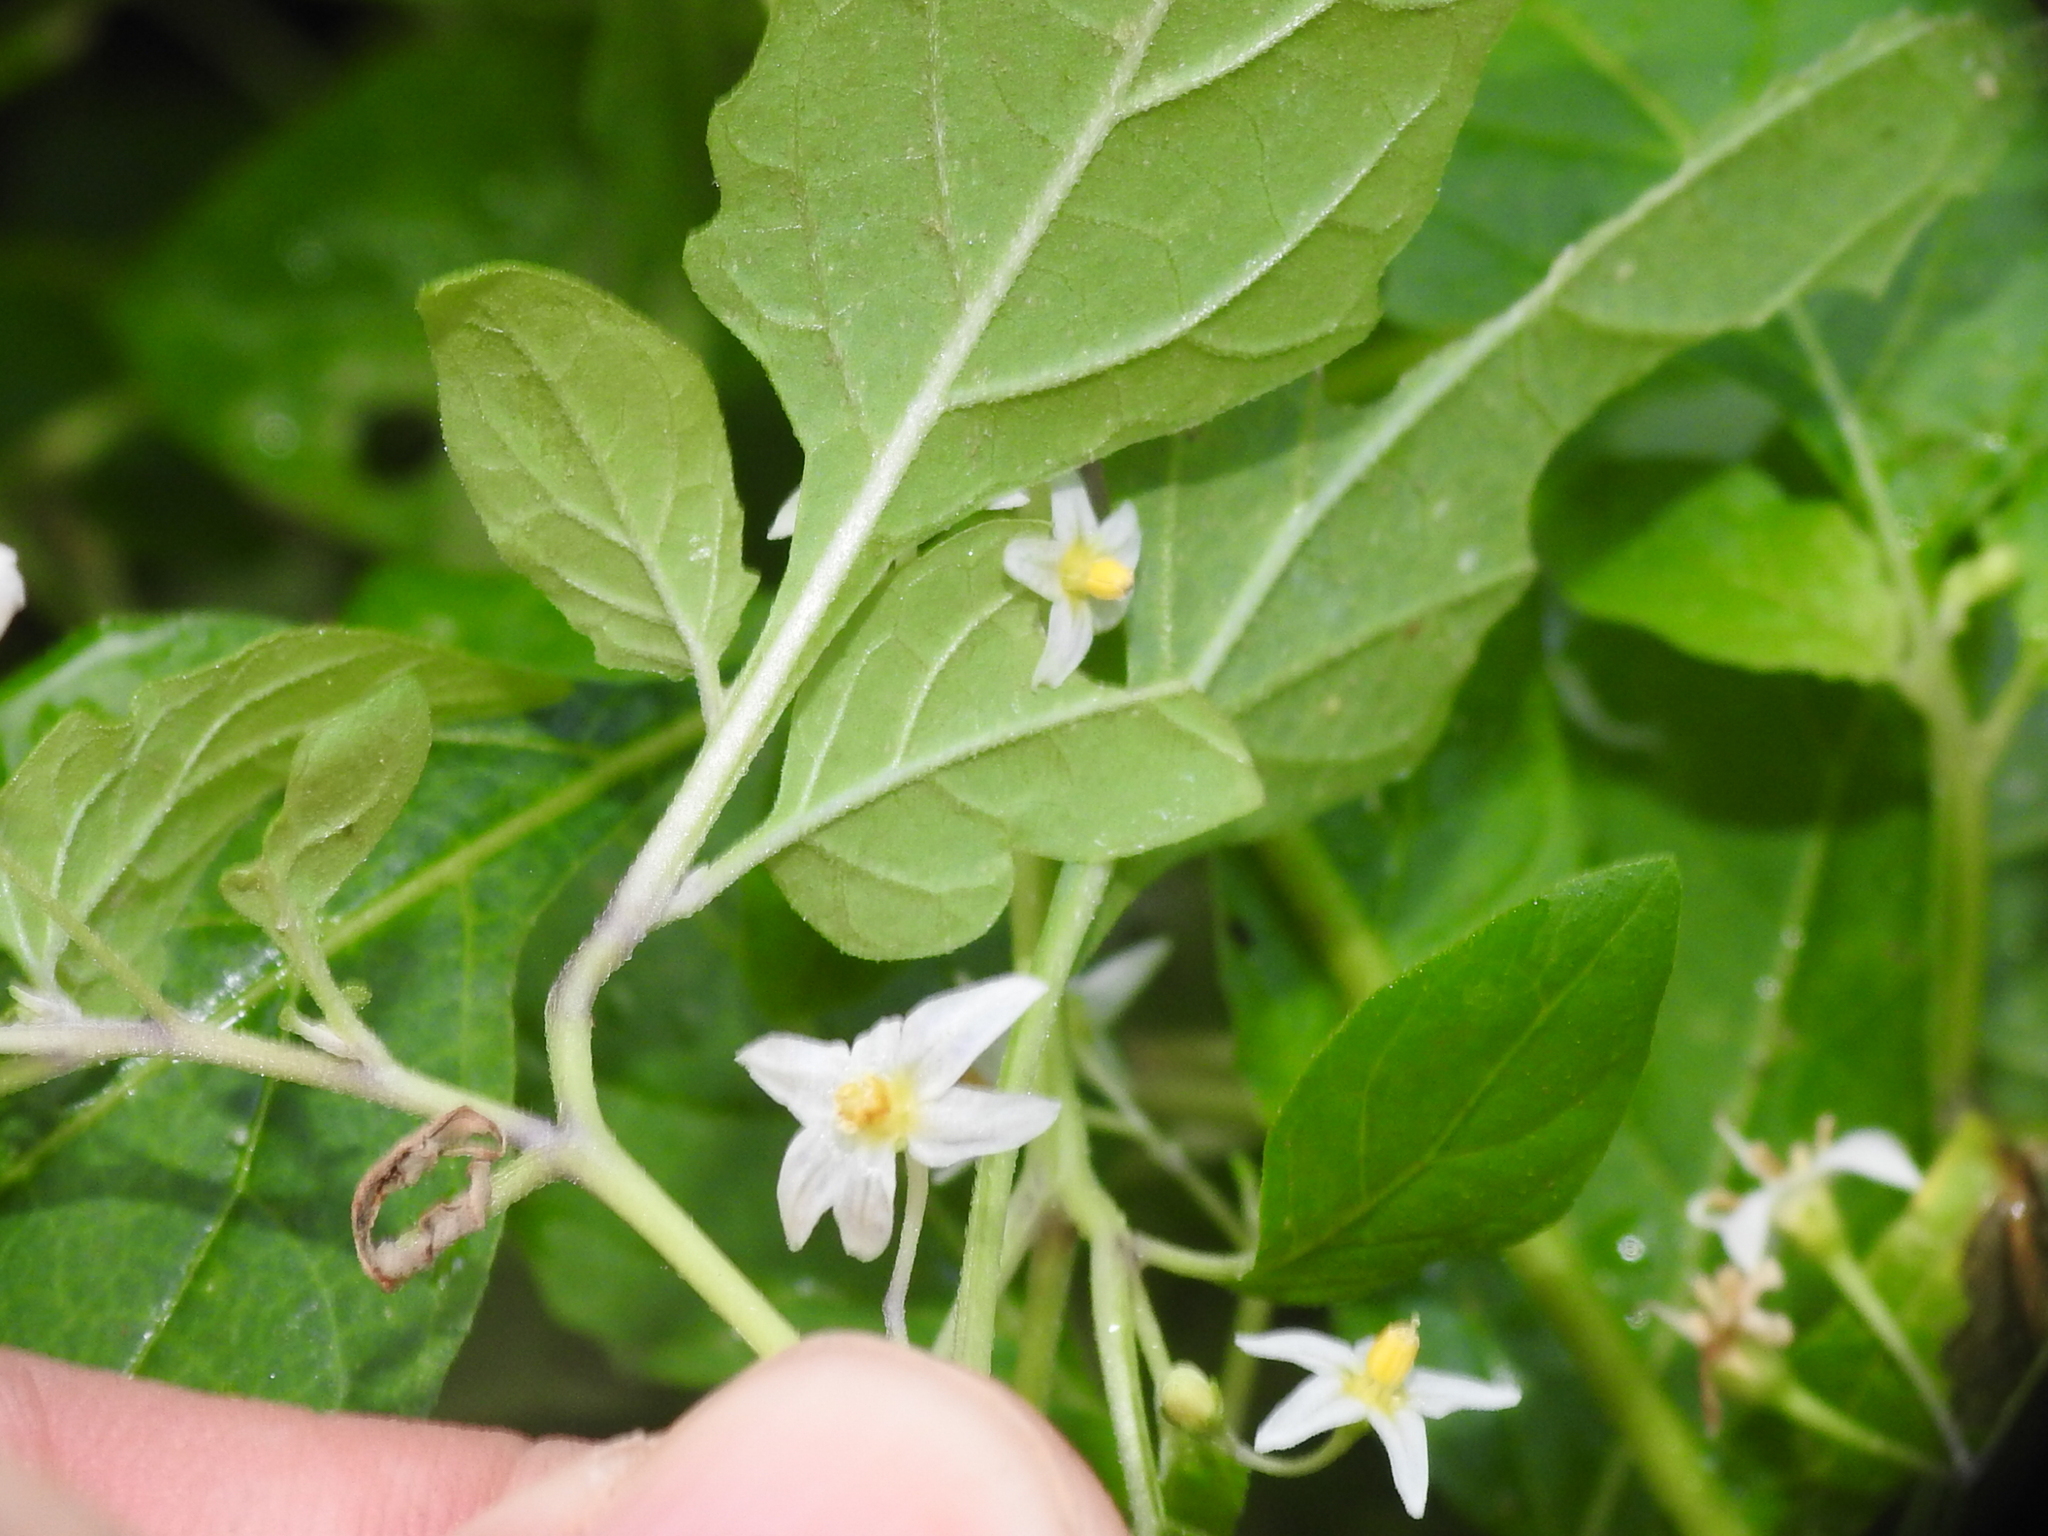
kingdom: Plantae
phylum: Tracheophyta
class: Magnoliopsida
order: Solanales
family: Solanaceae
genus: Solanum
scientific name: Solanum emulans
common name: Eastern black nightshade
